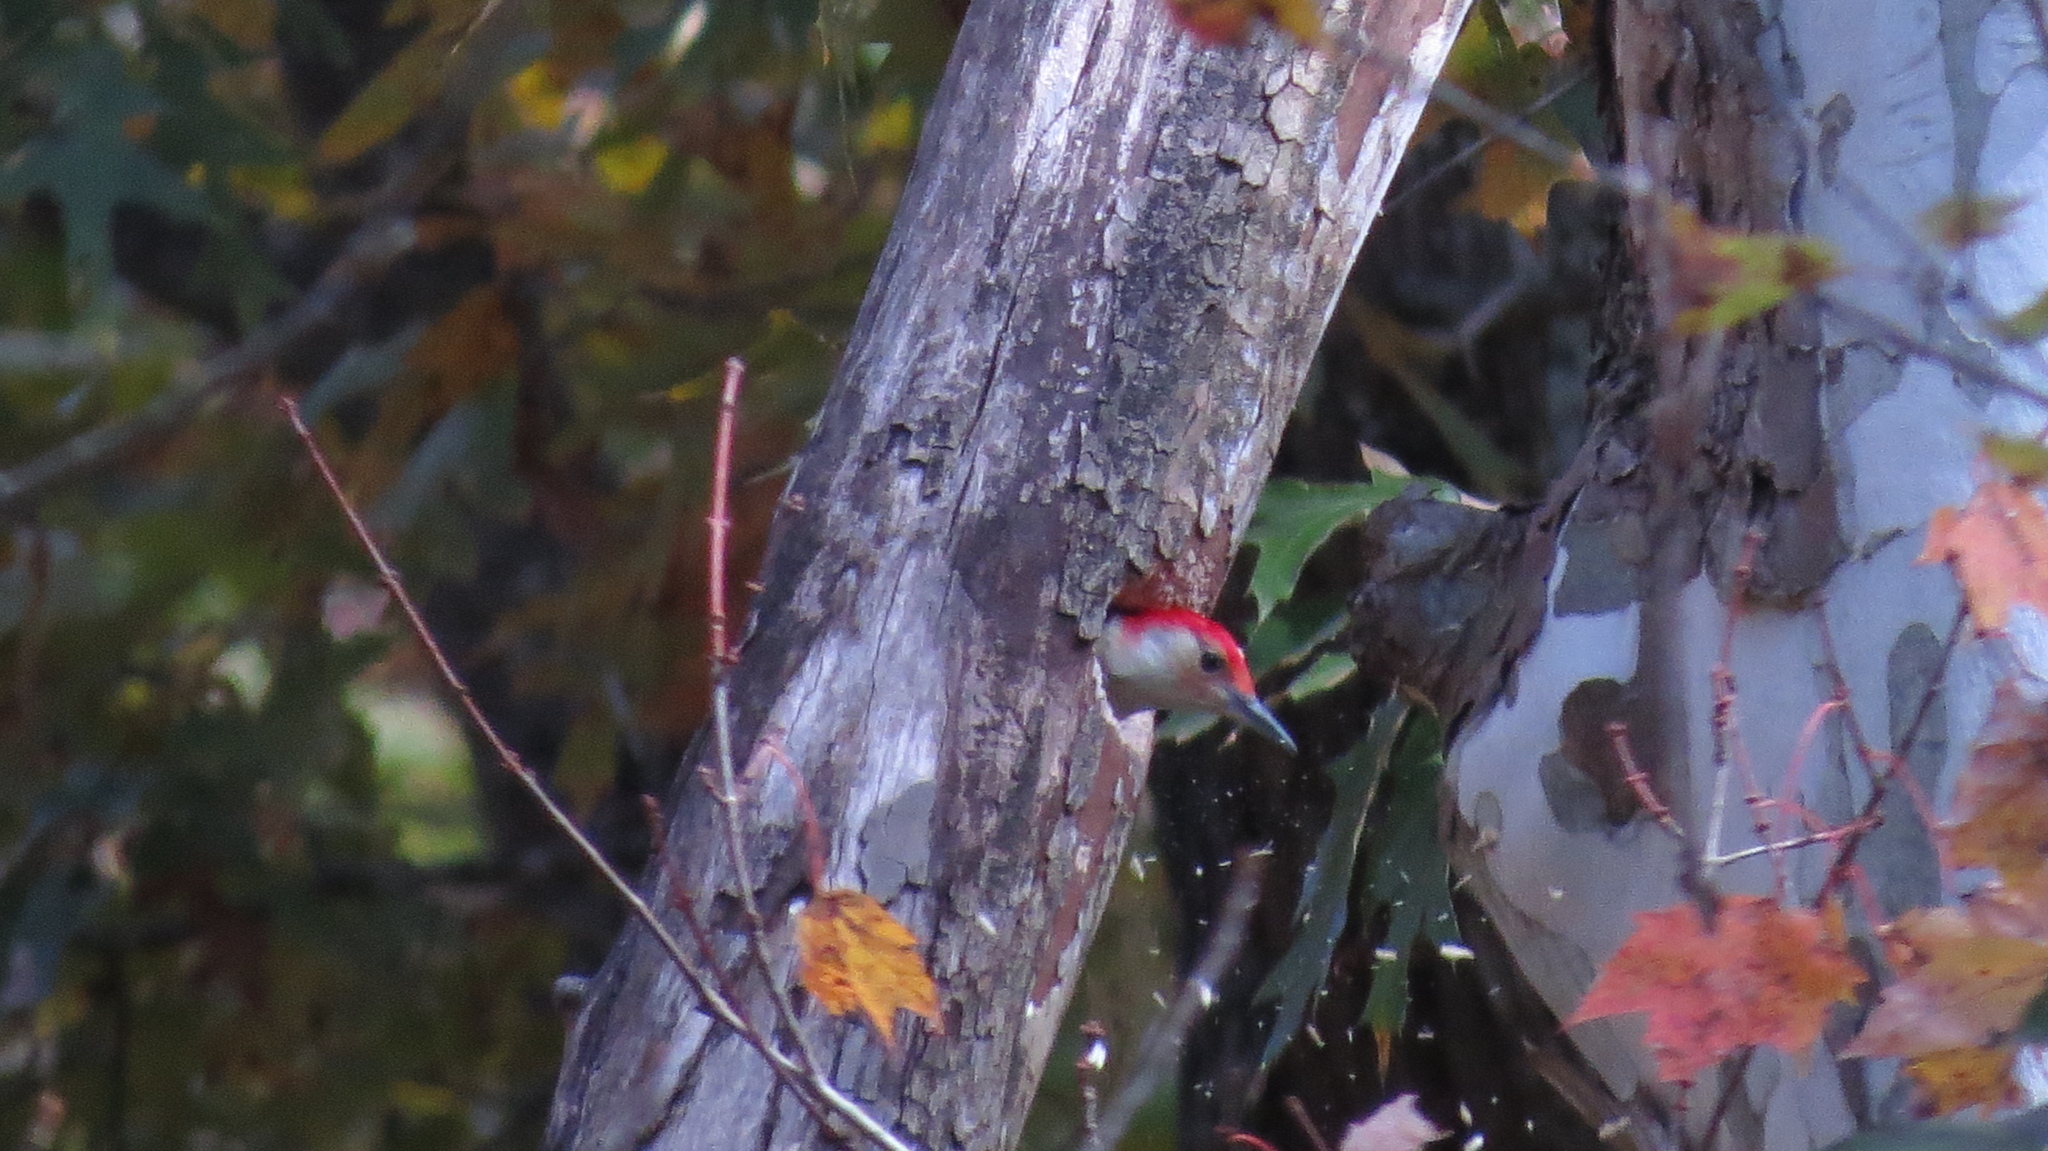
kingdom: Animalia
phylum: Chordata
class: Aves
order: Piciformes
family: Picidae
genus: Melanerpes
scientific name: Melanerpes carolinus
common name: Red-bellied woodpecker
